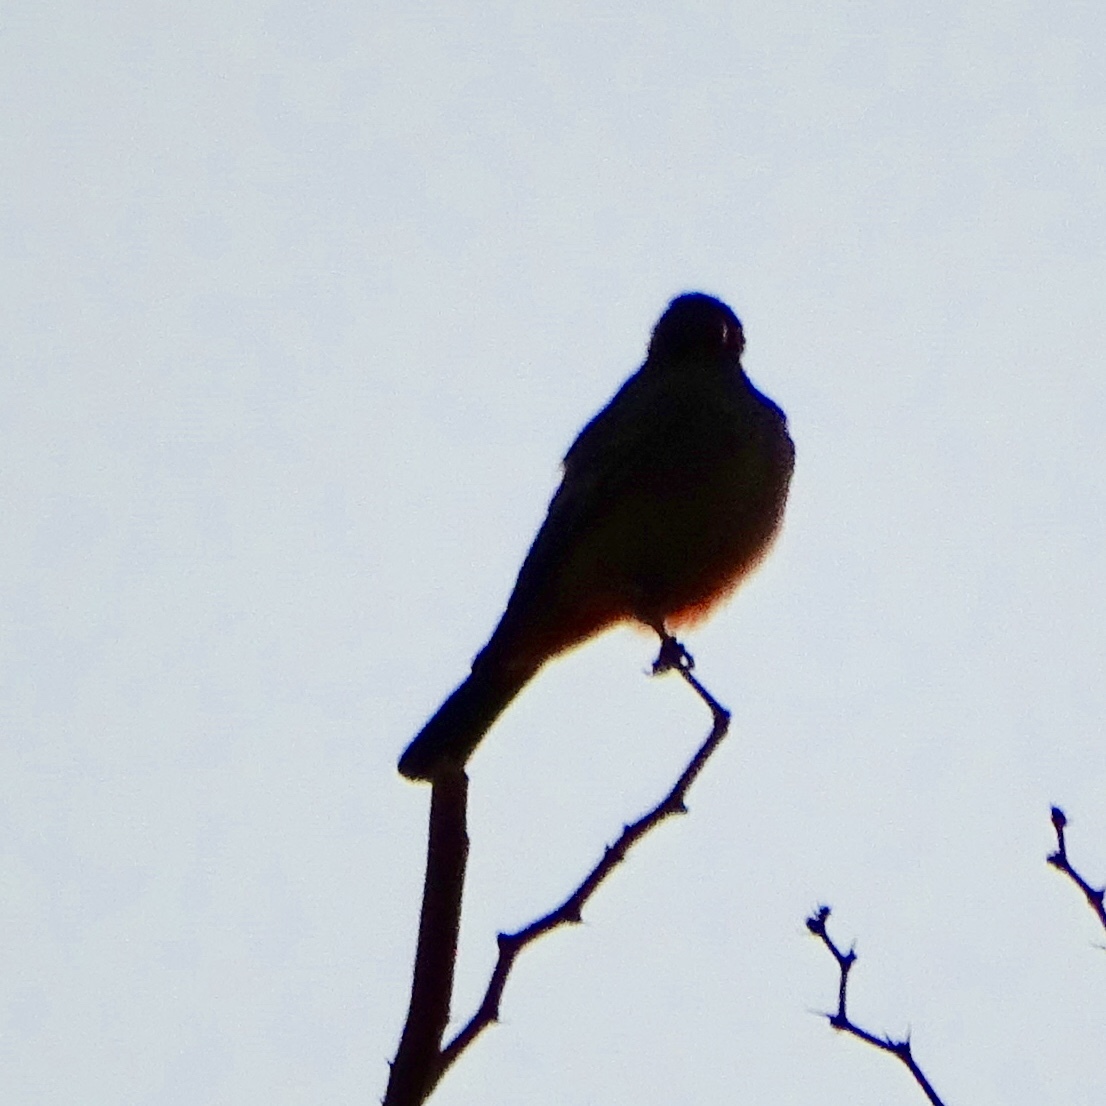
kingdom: Animalia
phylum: Chordata
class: Aves
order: Passeriformes
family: Tyrannidae
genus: Sayornis
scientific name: Sayornis saya
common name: Say's phoebe
